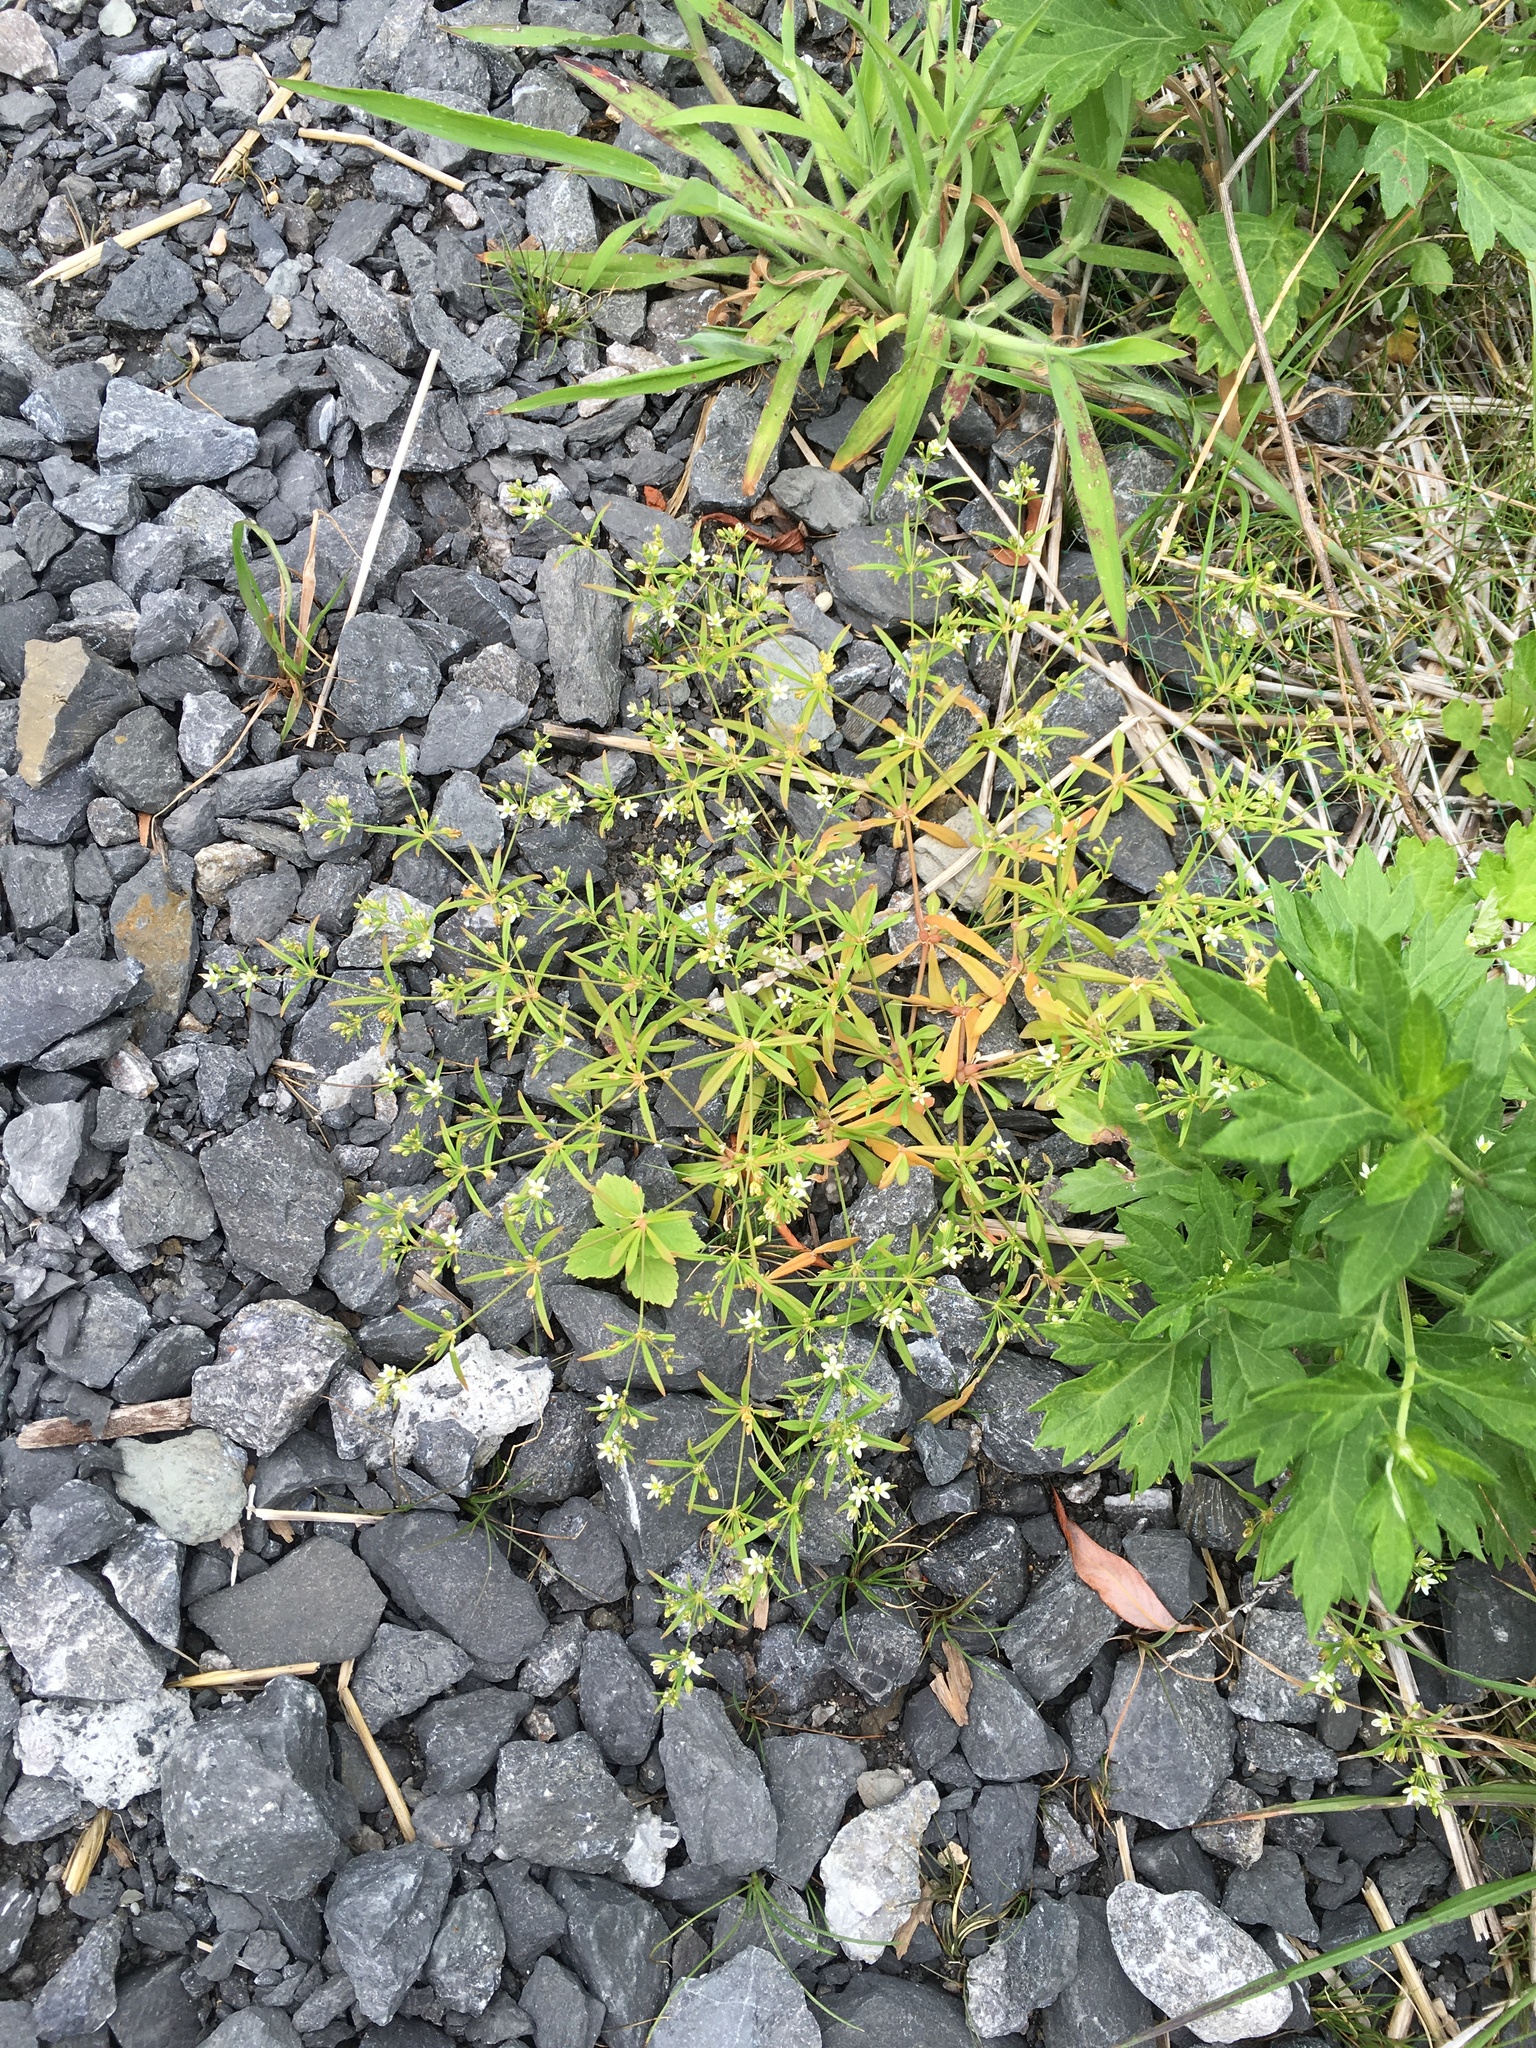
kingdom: Plantae
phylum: Tracheophyta
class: Magnoliopsida
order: Caryophyllales
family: Molluginaceae
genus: Mollugo
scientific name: Mollugo verticillata
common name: Green carpetweed
